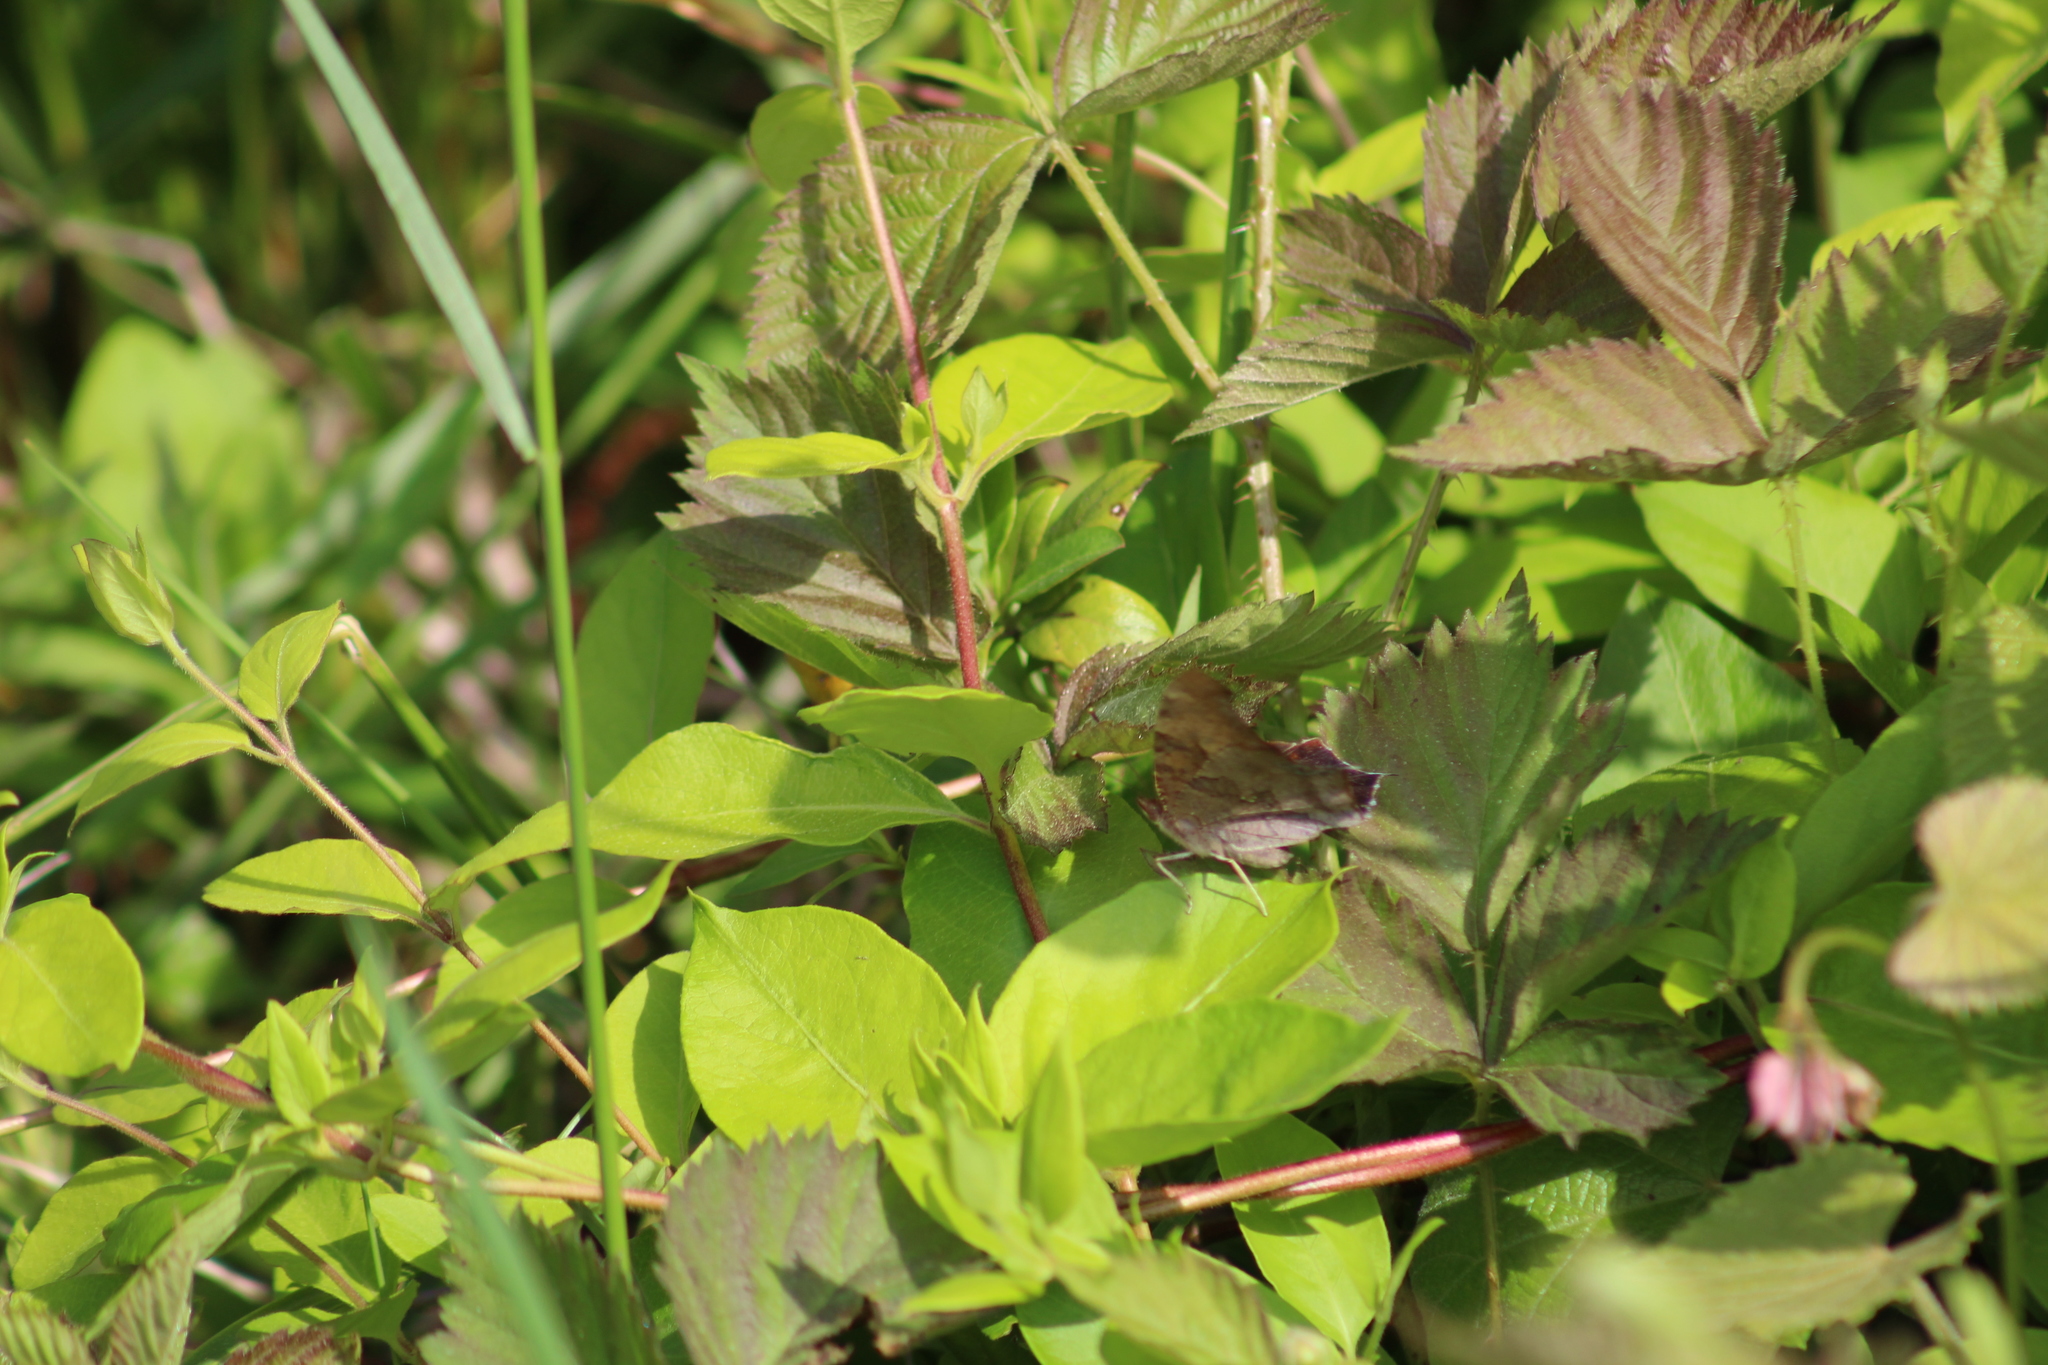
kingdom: Animalia
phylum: Arthropoda
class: Insecta
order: Lepidoptera
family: Nymphalidae
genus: Polygonia
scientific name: Polygonia interrogationis
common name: Question mark
